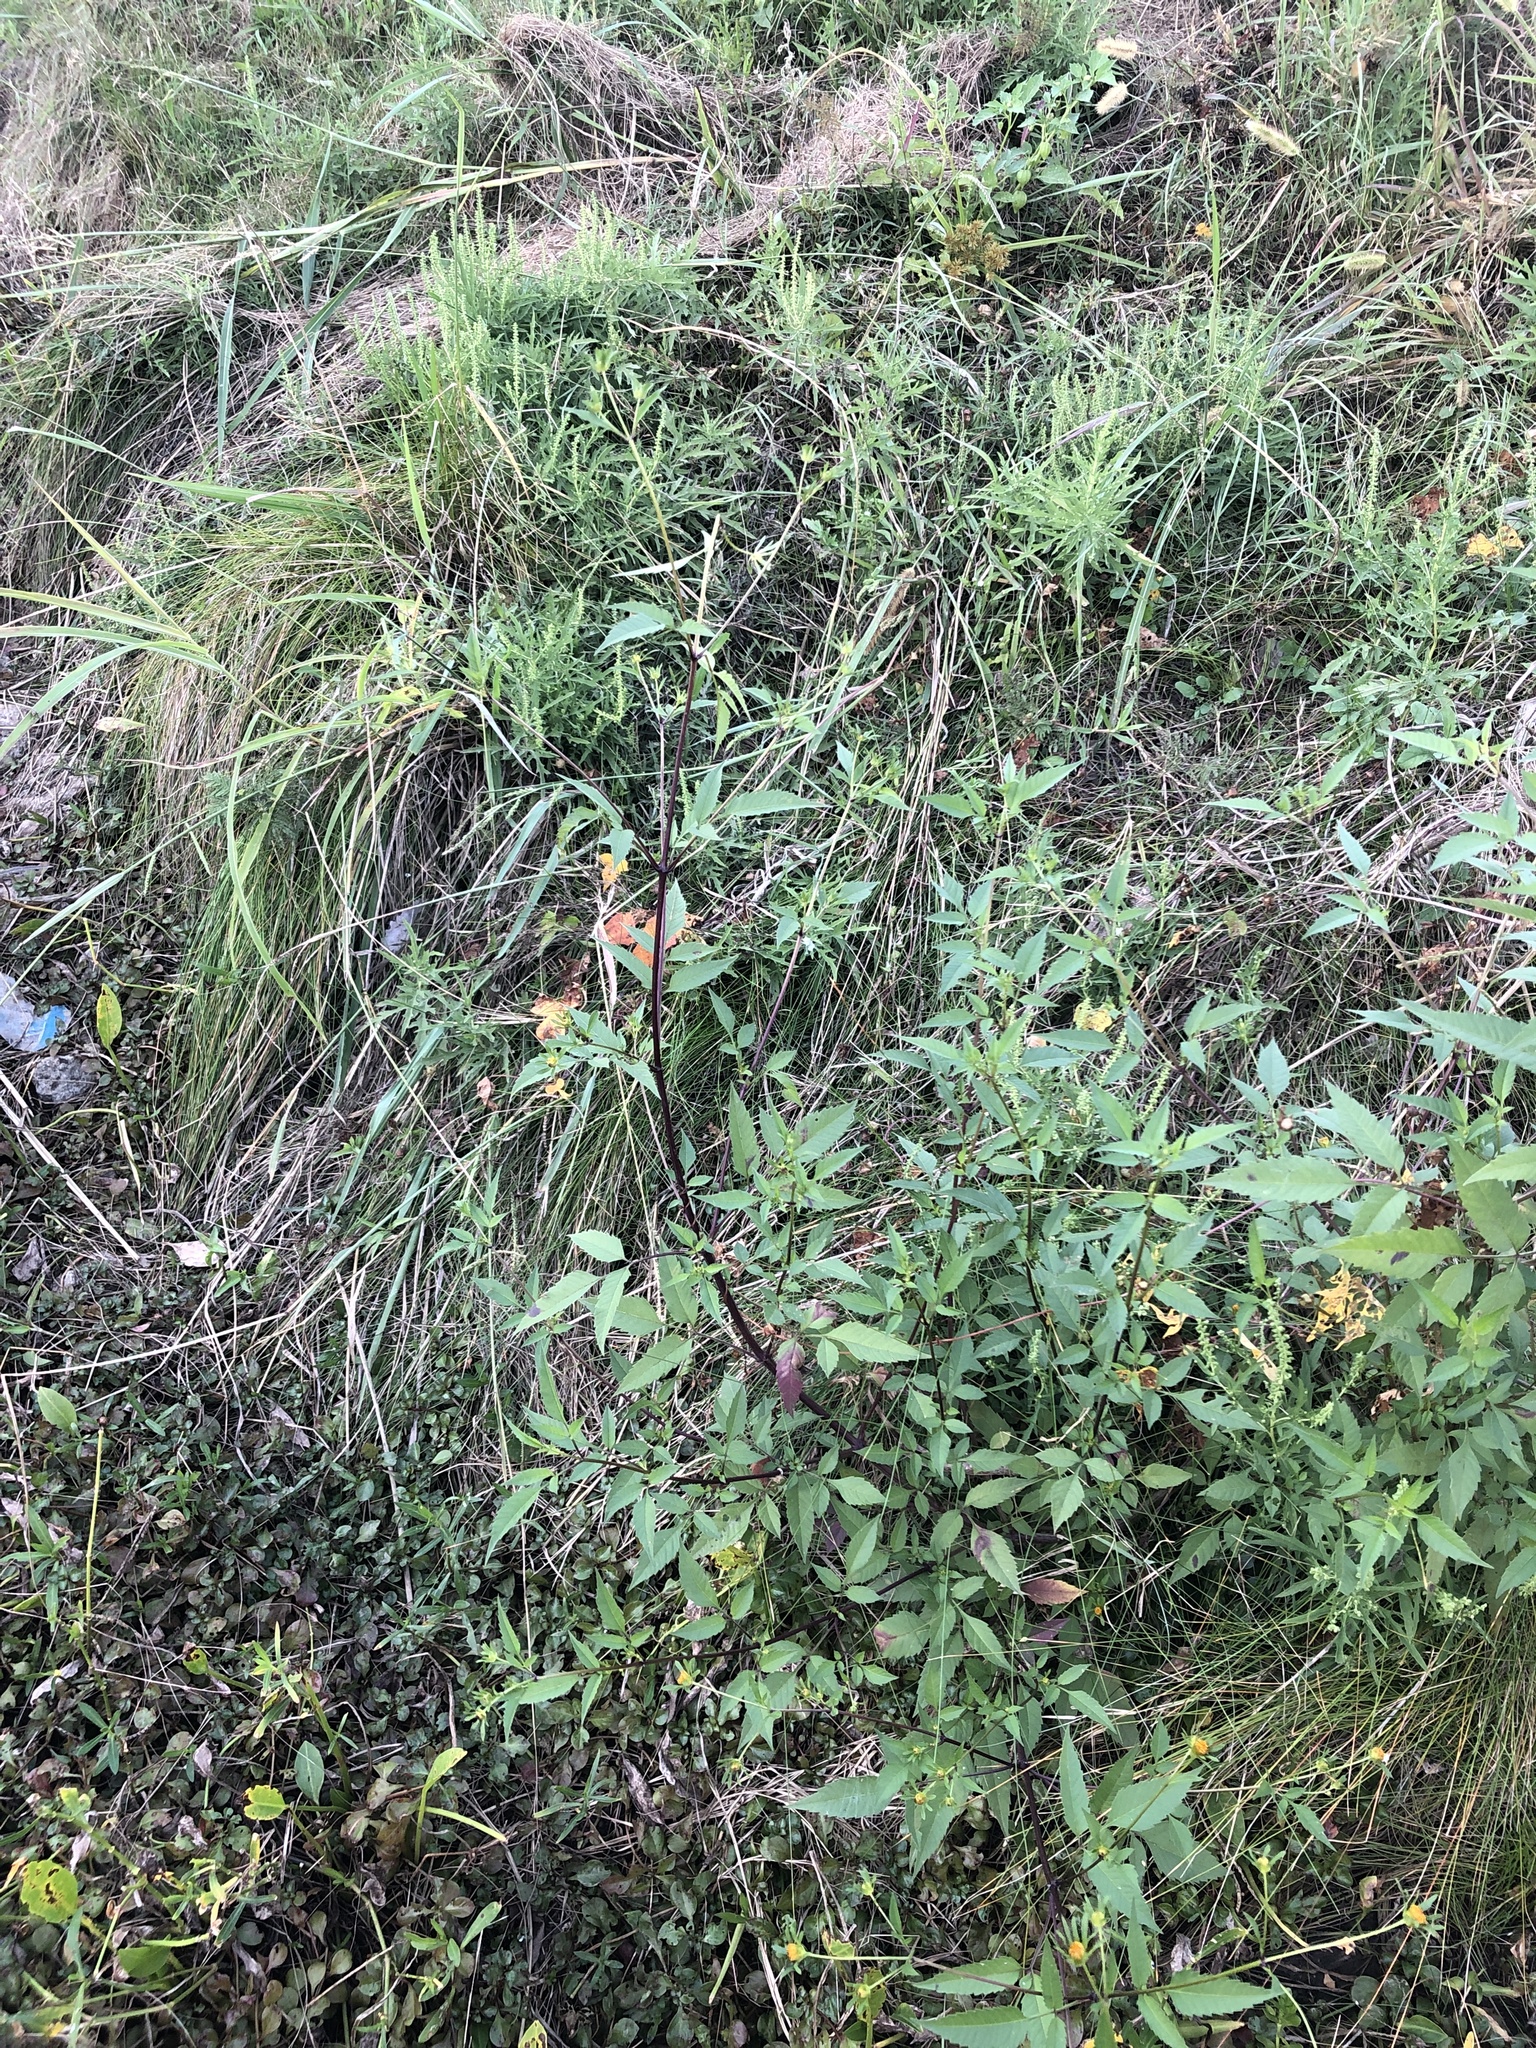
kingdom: Plantae
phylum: Tracheophyta
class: Magnoliopsida
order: Asterales
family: Asteraceae
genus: Bidens
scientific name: Bidens frondosa
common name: Beggarticks
